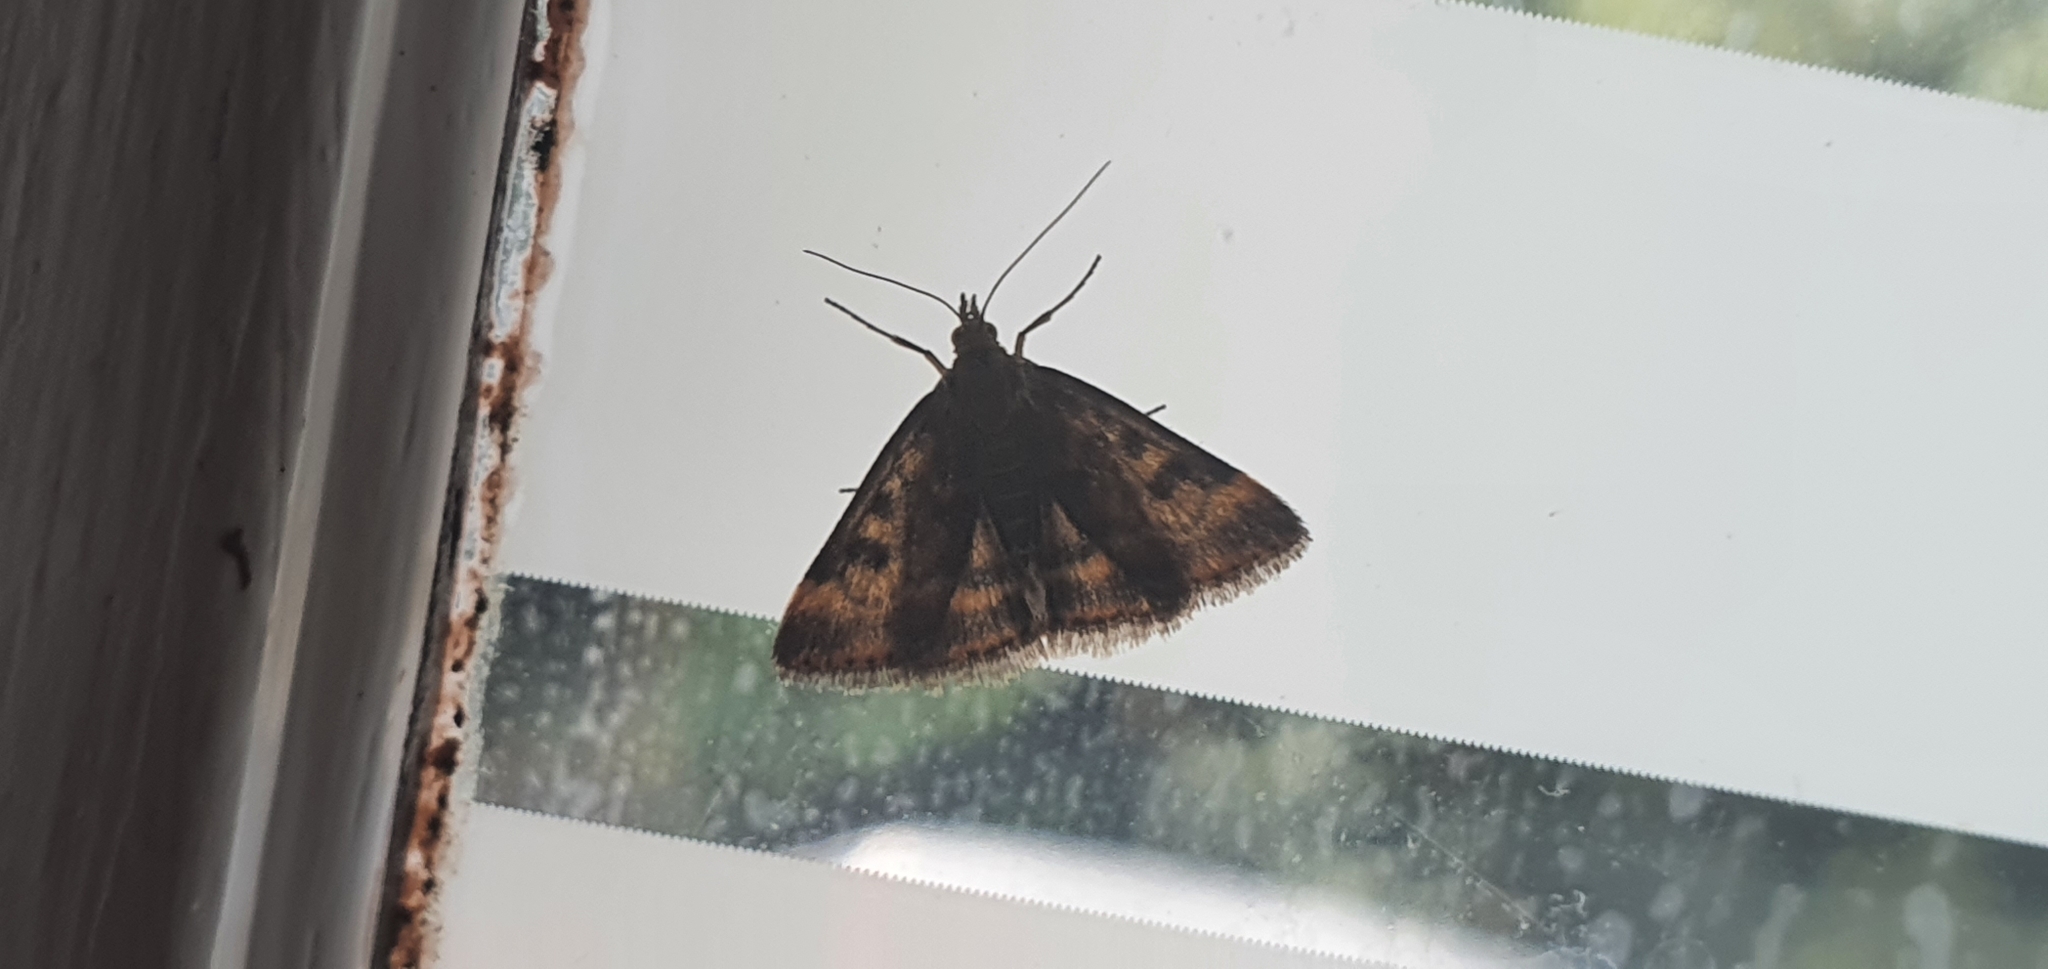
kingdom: Animalia
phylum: Arthropoda
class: Insecta
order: Lepidoptera
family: Crambidae
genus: Pyrausta
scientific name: Pyrausta despicata
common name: Straw-barred pearl
